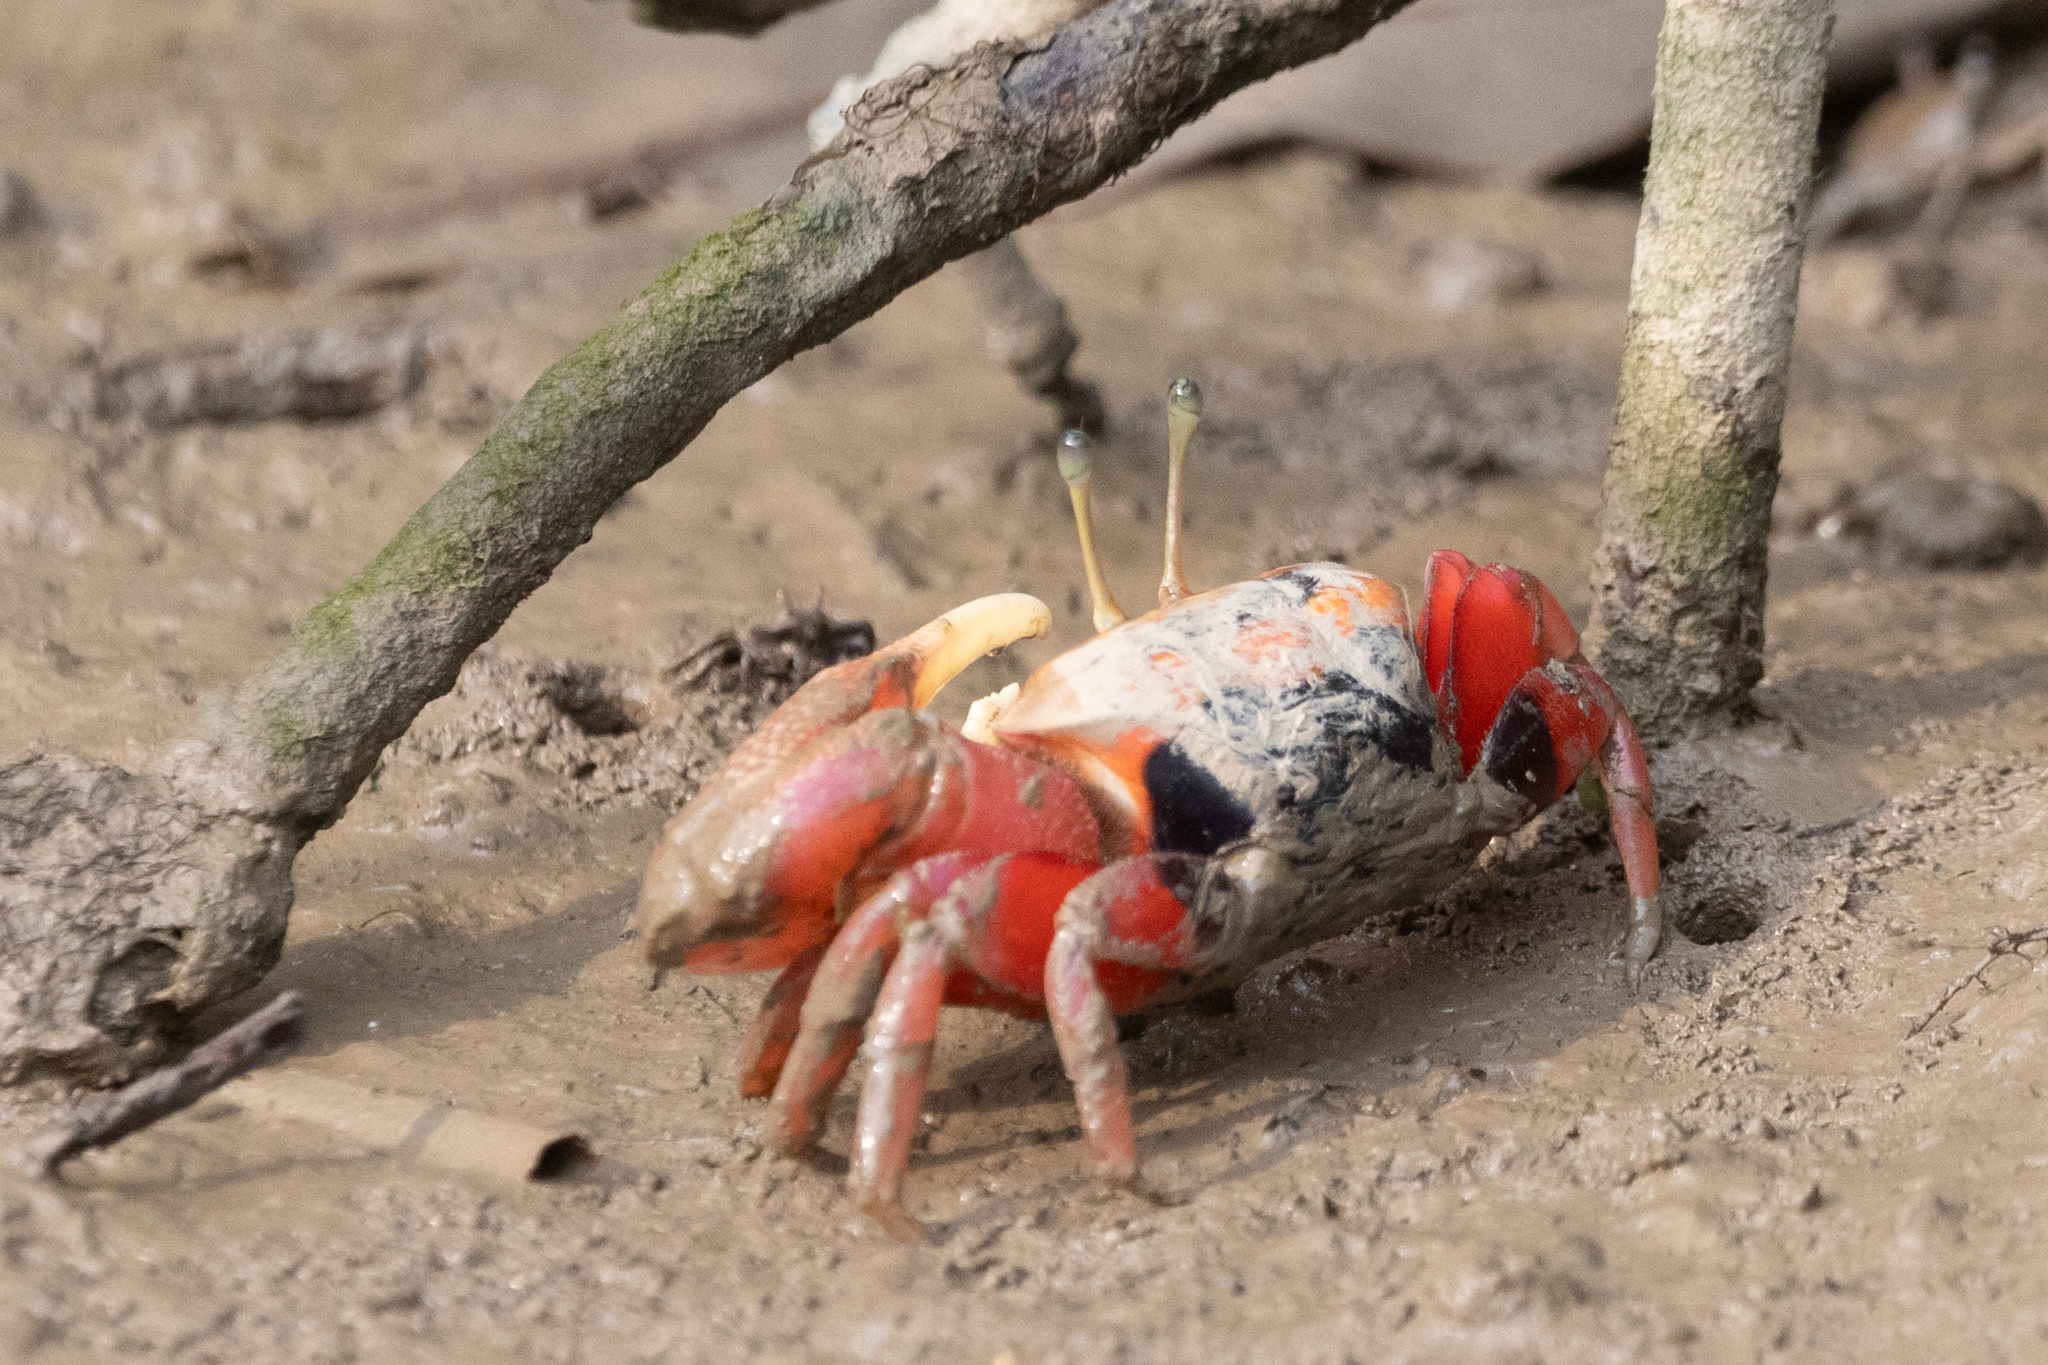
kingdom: Animalia
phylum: Arthropoda
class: Malacostraca
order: Decapoda
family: Ocypodidae
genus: Tubuca
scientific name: Tubuca arcuata
